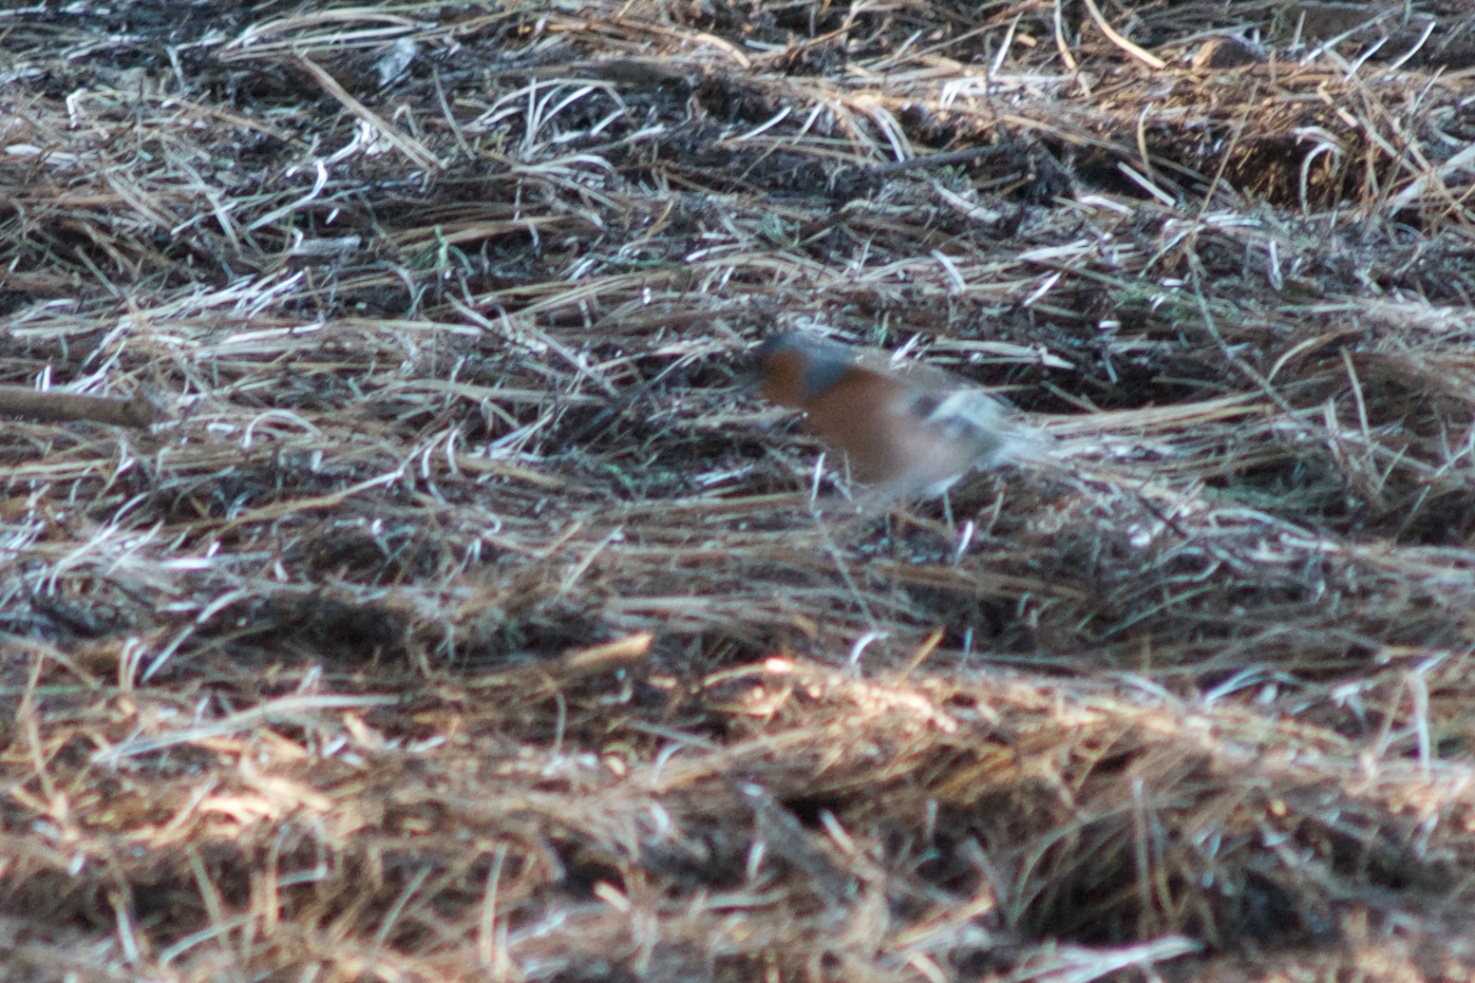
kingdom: Animalia
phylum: Chordata
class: Aves
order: Passeriformes
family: Fringillidae
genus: Fringilla
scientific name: Fringilla coelebs
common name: Common chaffinch
